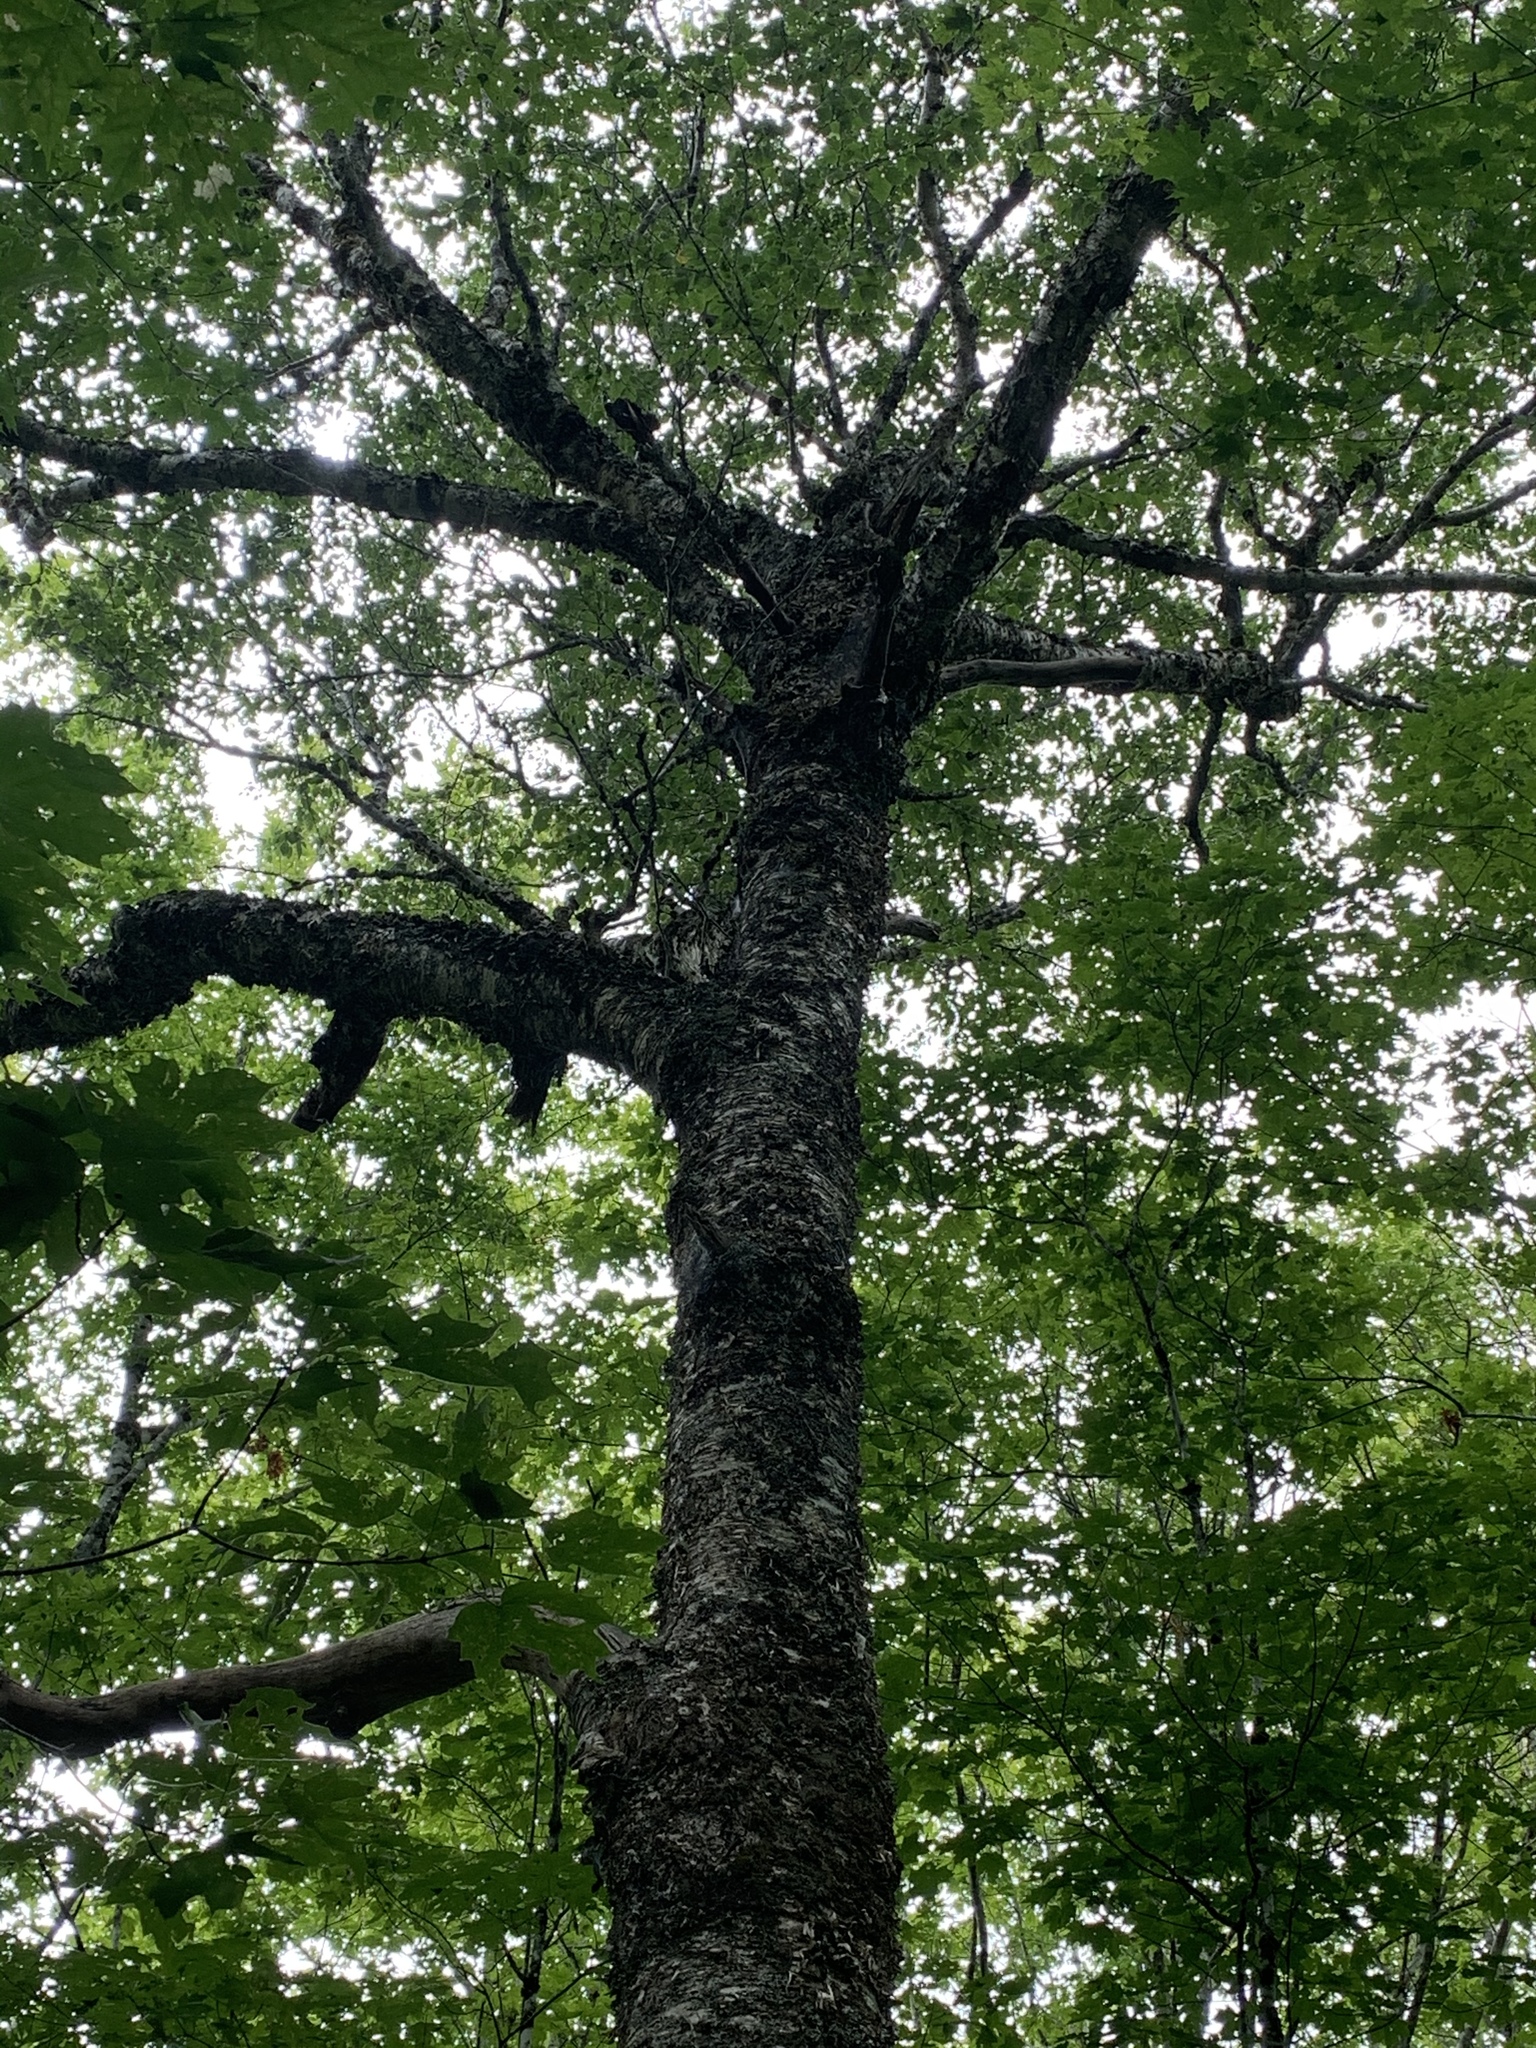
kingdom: Plantae
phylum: Tracheophyta
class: Magnoliopsida
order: Fagales
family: Betulaceae
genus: Betula
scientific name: Betula alleghaniensis
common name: Yellow birch
